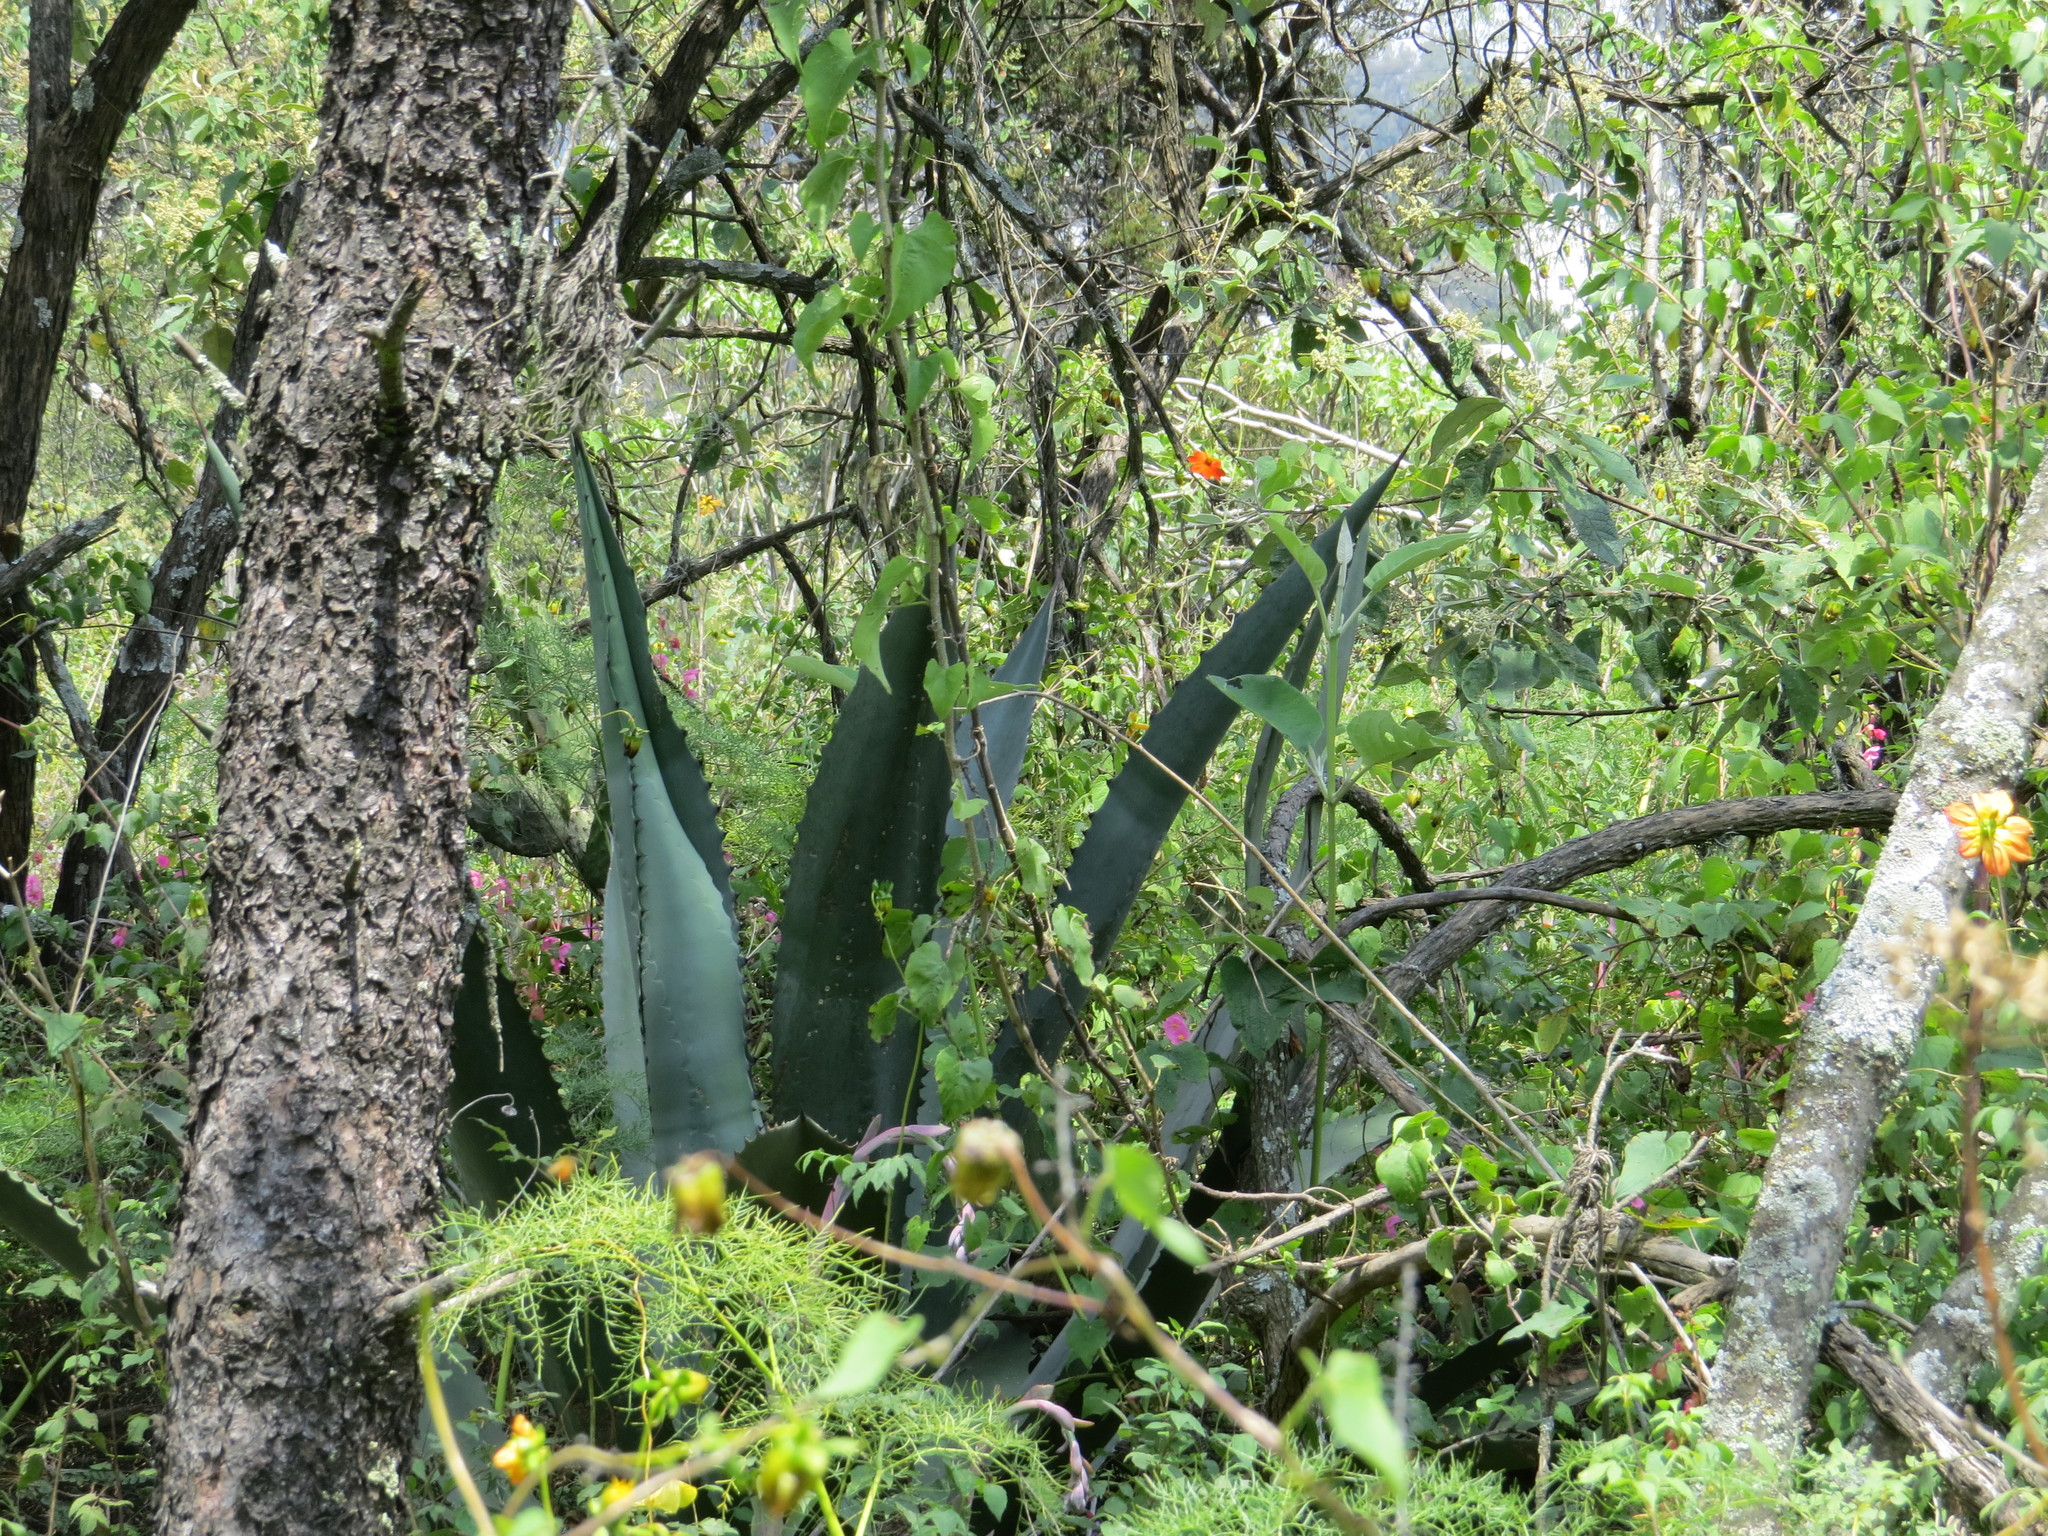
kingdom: Plantae
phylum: Tracheophyta
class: Liliopsida
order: Asparagales
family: Asparagaceae
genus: Agave
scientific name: Agave inaequidens
